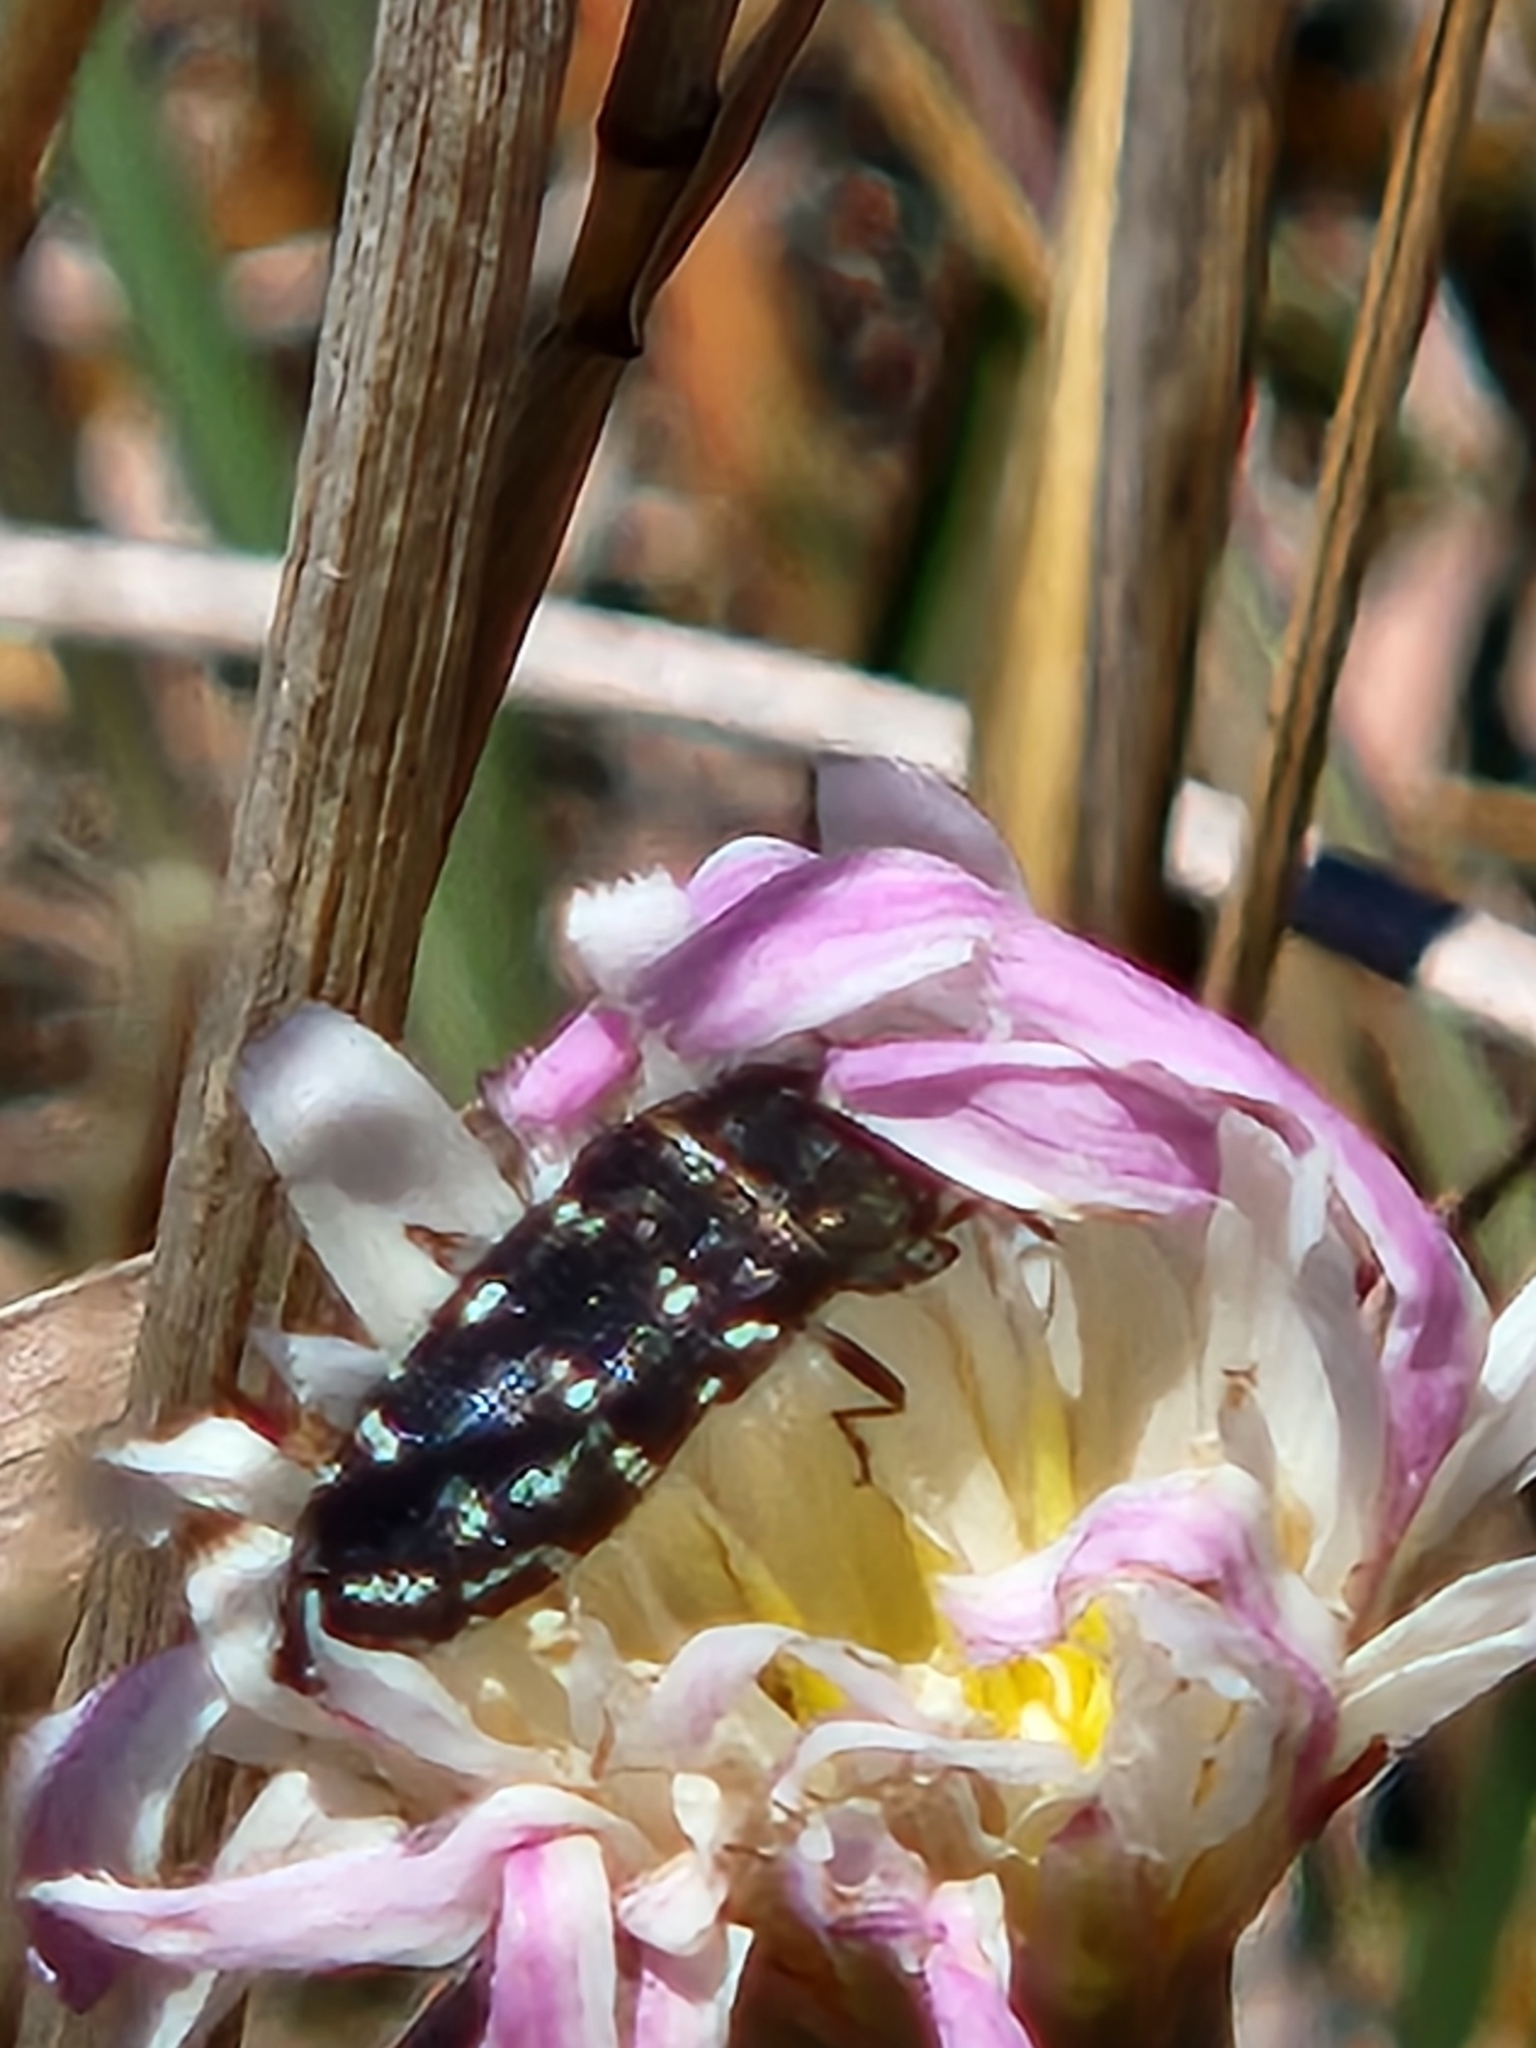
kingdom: Animalia
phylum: Arthropoda
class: Insecta
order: Coleoptera
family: Buprestidae
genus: Acmaeodera
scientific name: Acmaeodera ornatoides
